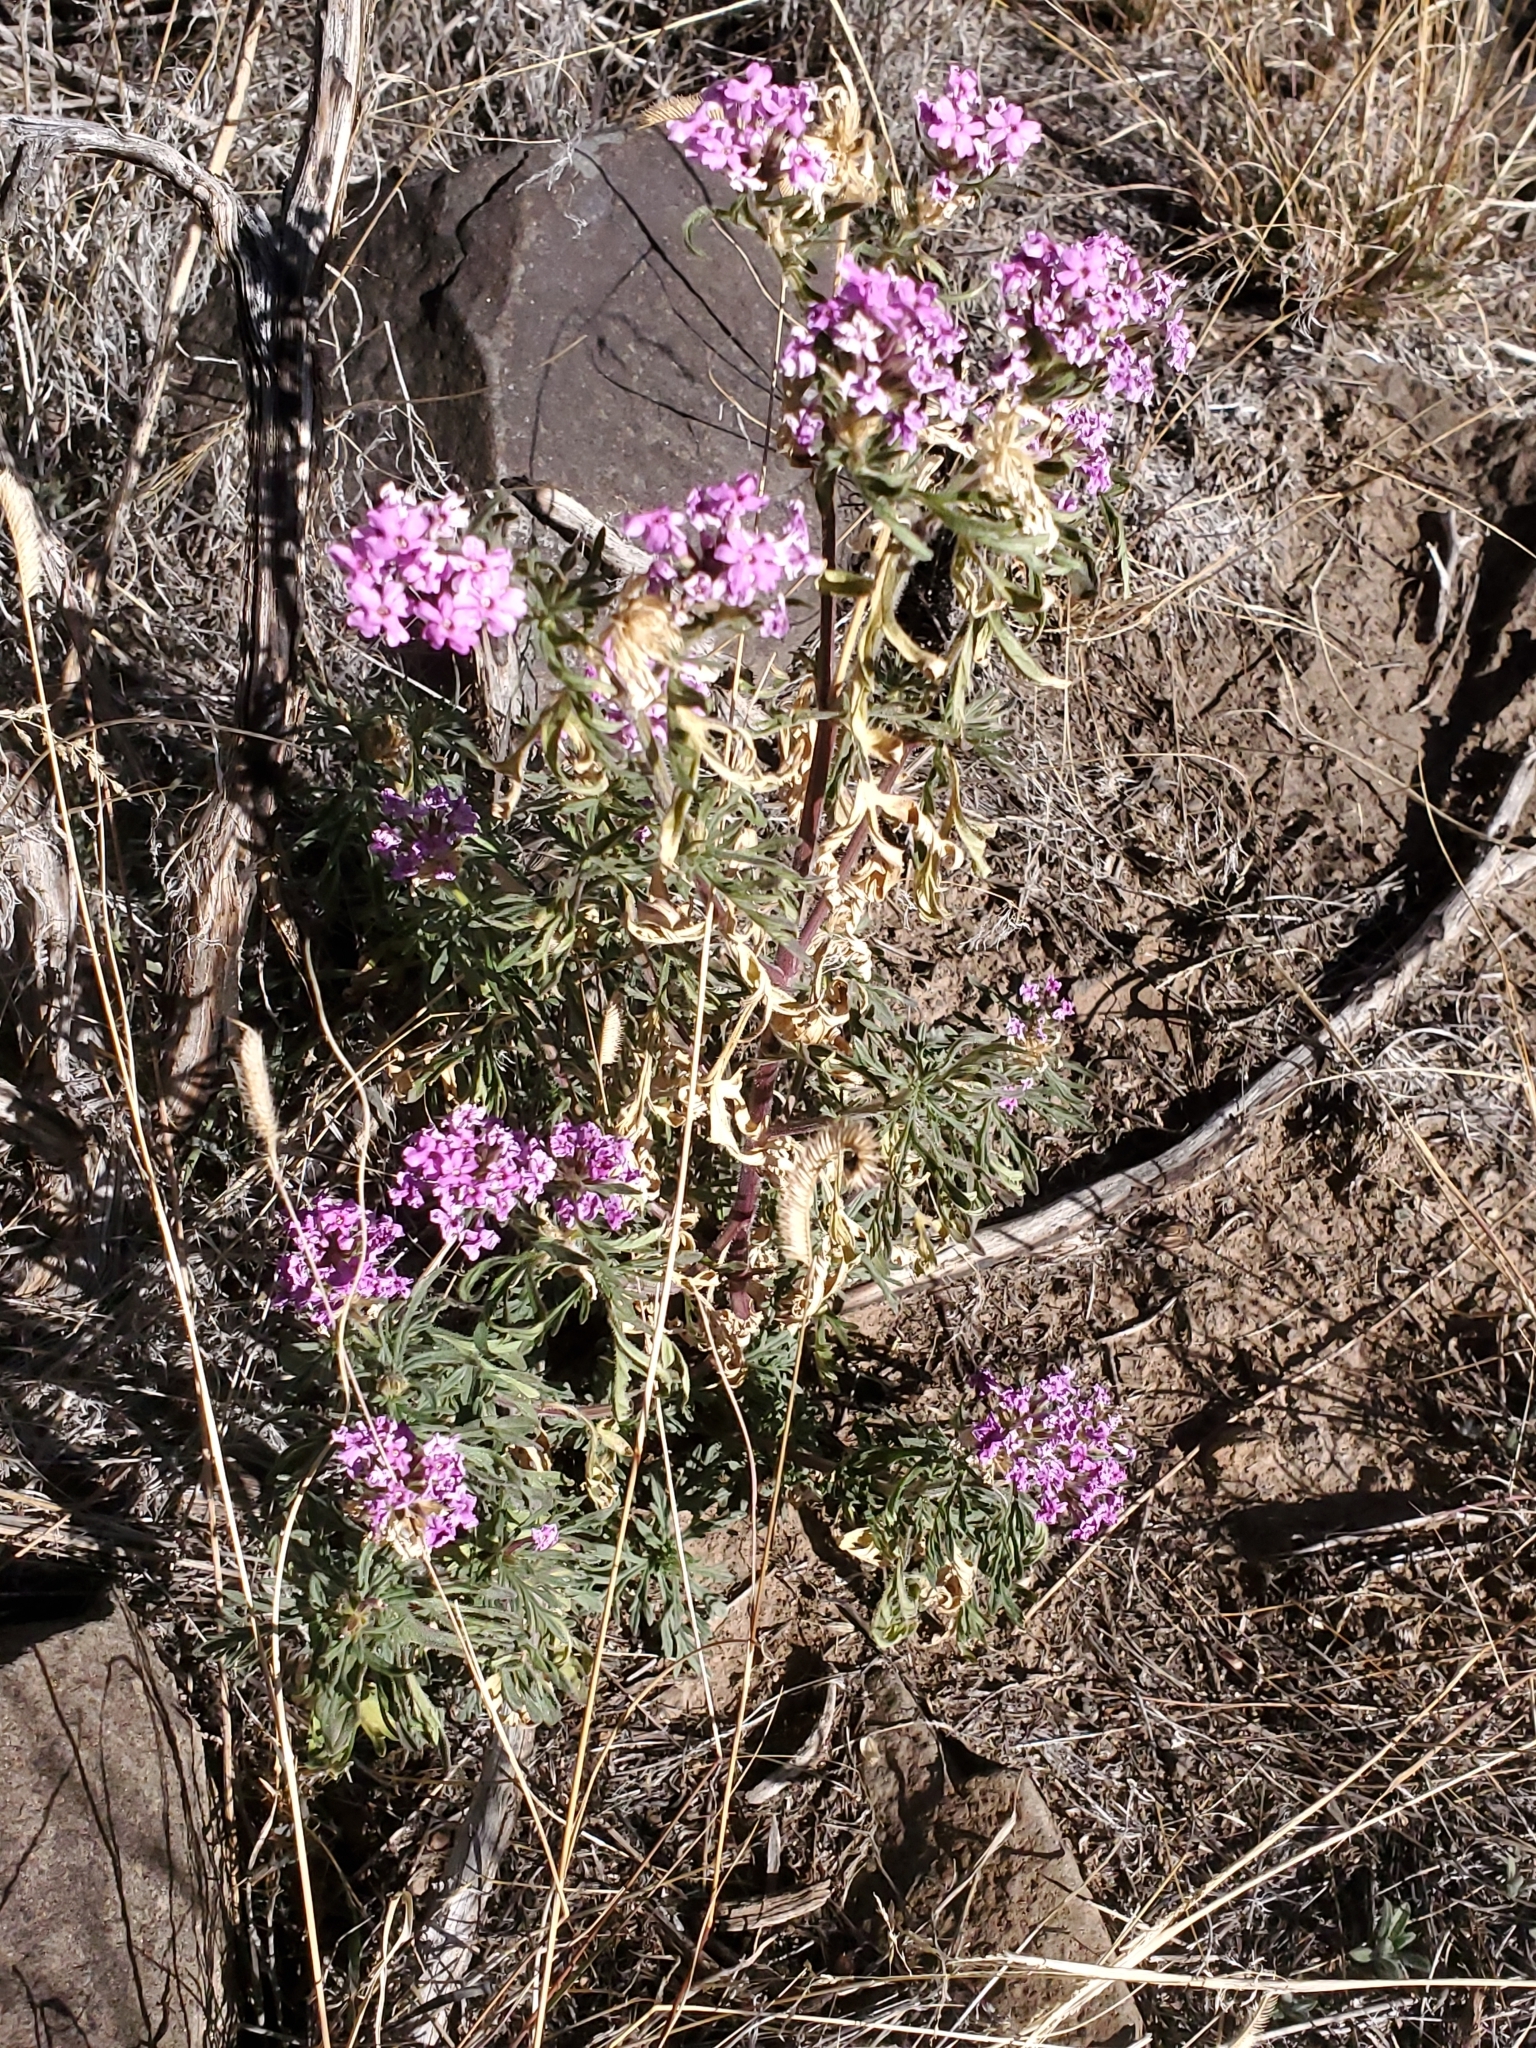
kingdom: Plantae
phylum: Tracheophyta
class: Magnoliopsida
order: Lamiales
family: Verbenaceae
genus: Verbena
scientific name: Verbena bipinnatifida
